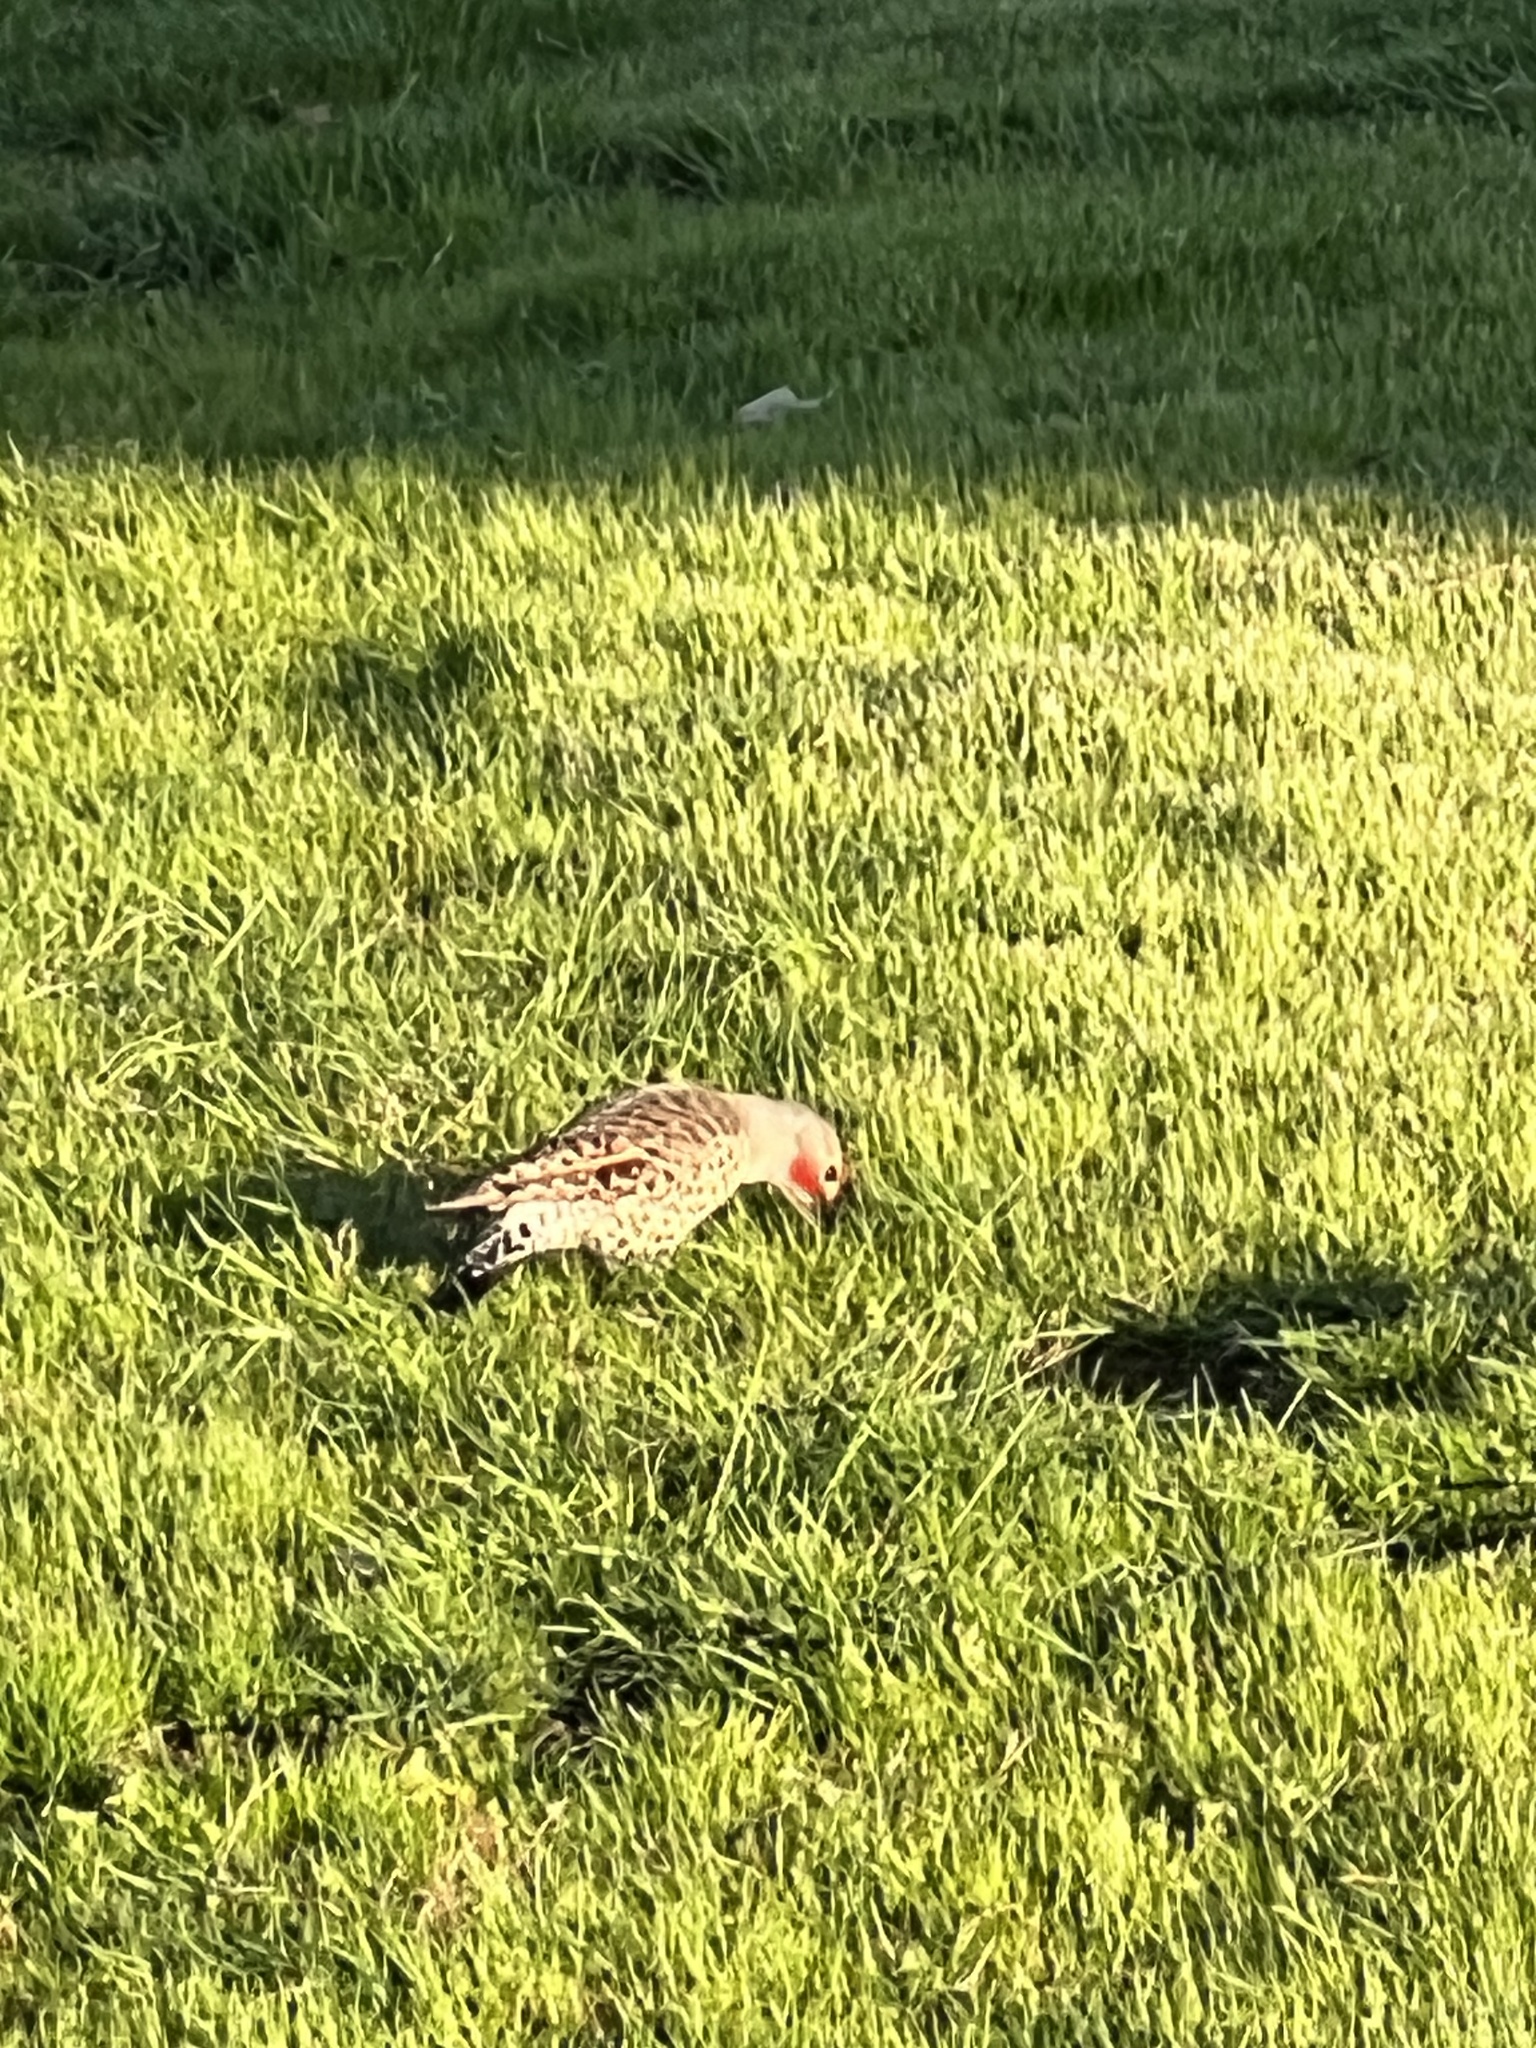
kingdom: Animalia
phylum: Chordata
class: Aves
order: Piciformes
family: Picidae
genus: Colaptes
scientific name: Colaptes auratus
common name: Northern flicker
